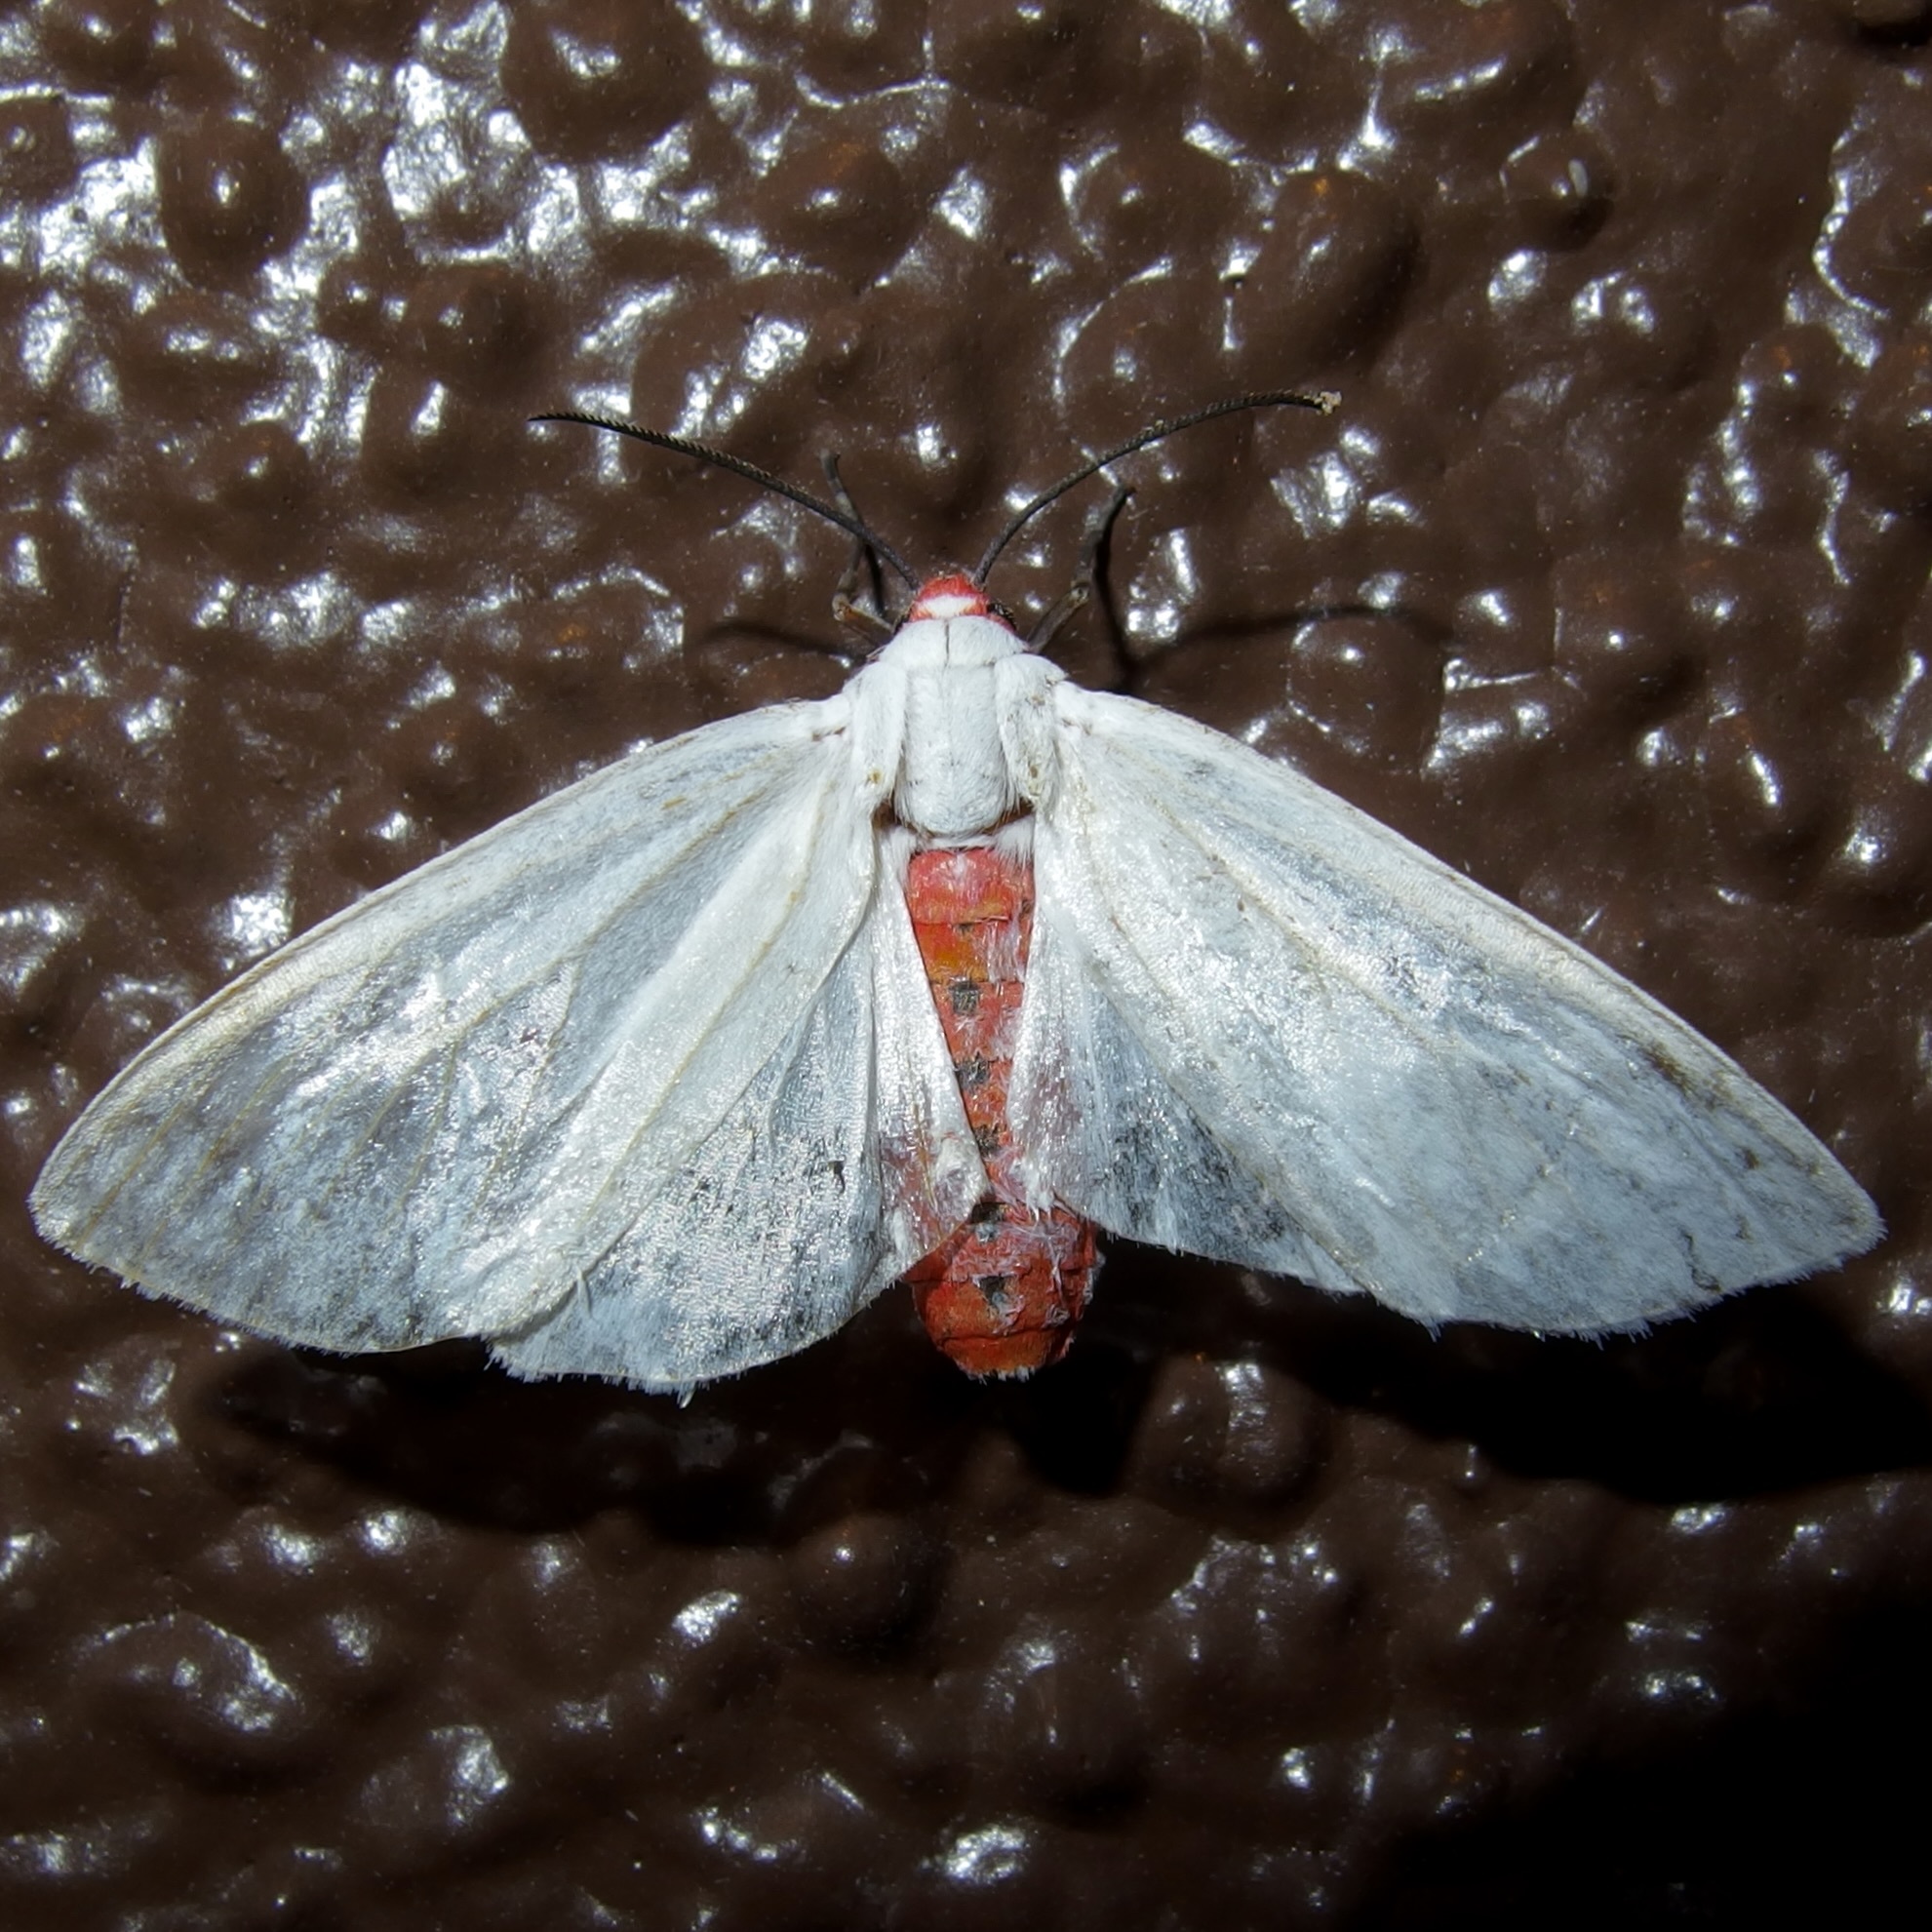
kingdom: Animalia
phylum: Arthropoda
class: Insecta
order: Lepidoptera
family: Erebidae
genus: Pygarctia
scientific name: Pygarctia roseicapitis
